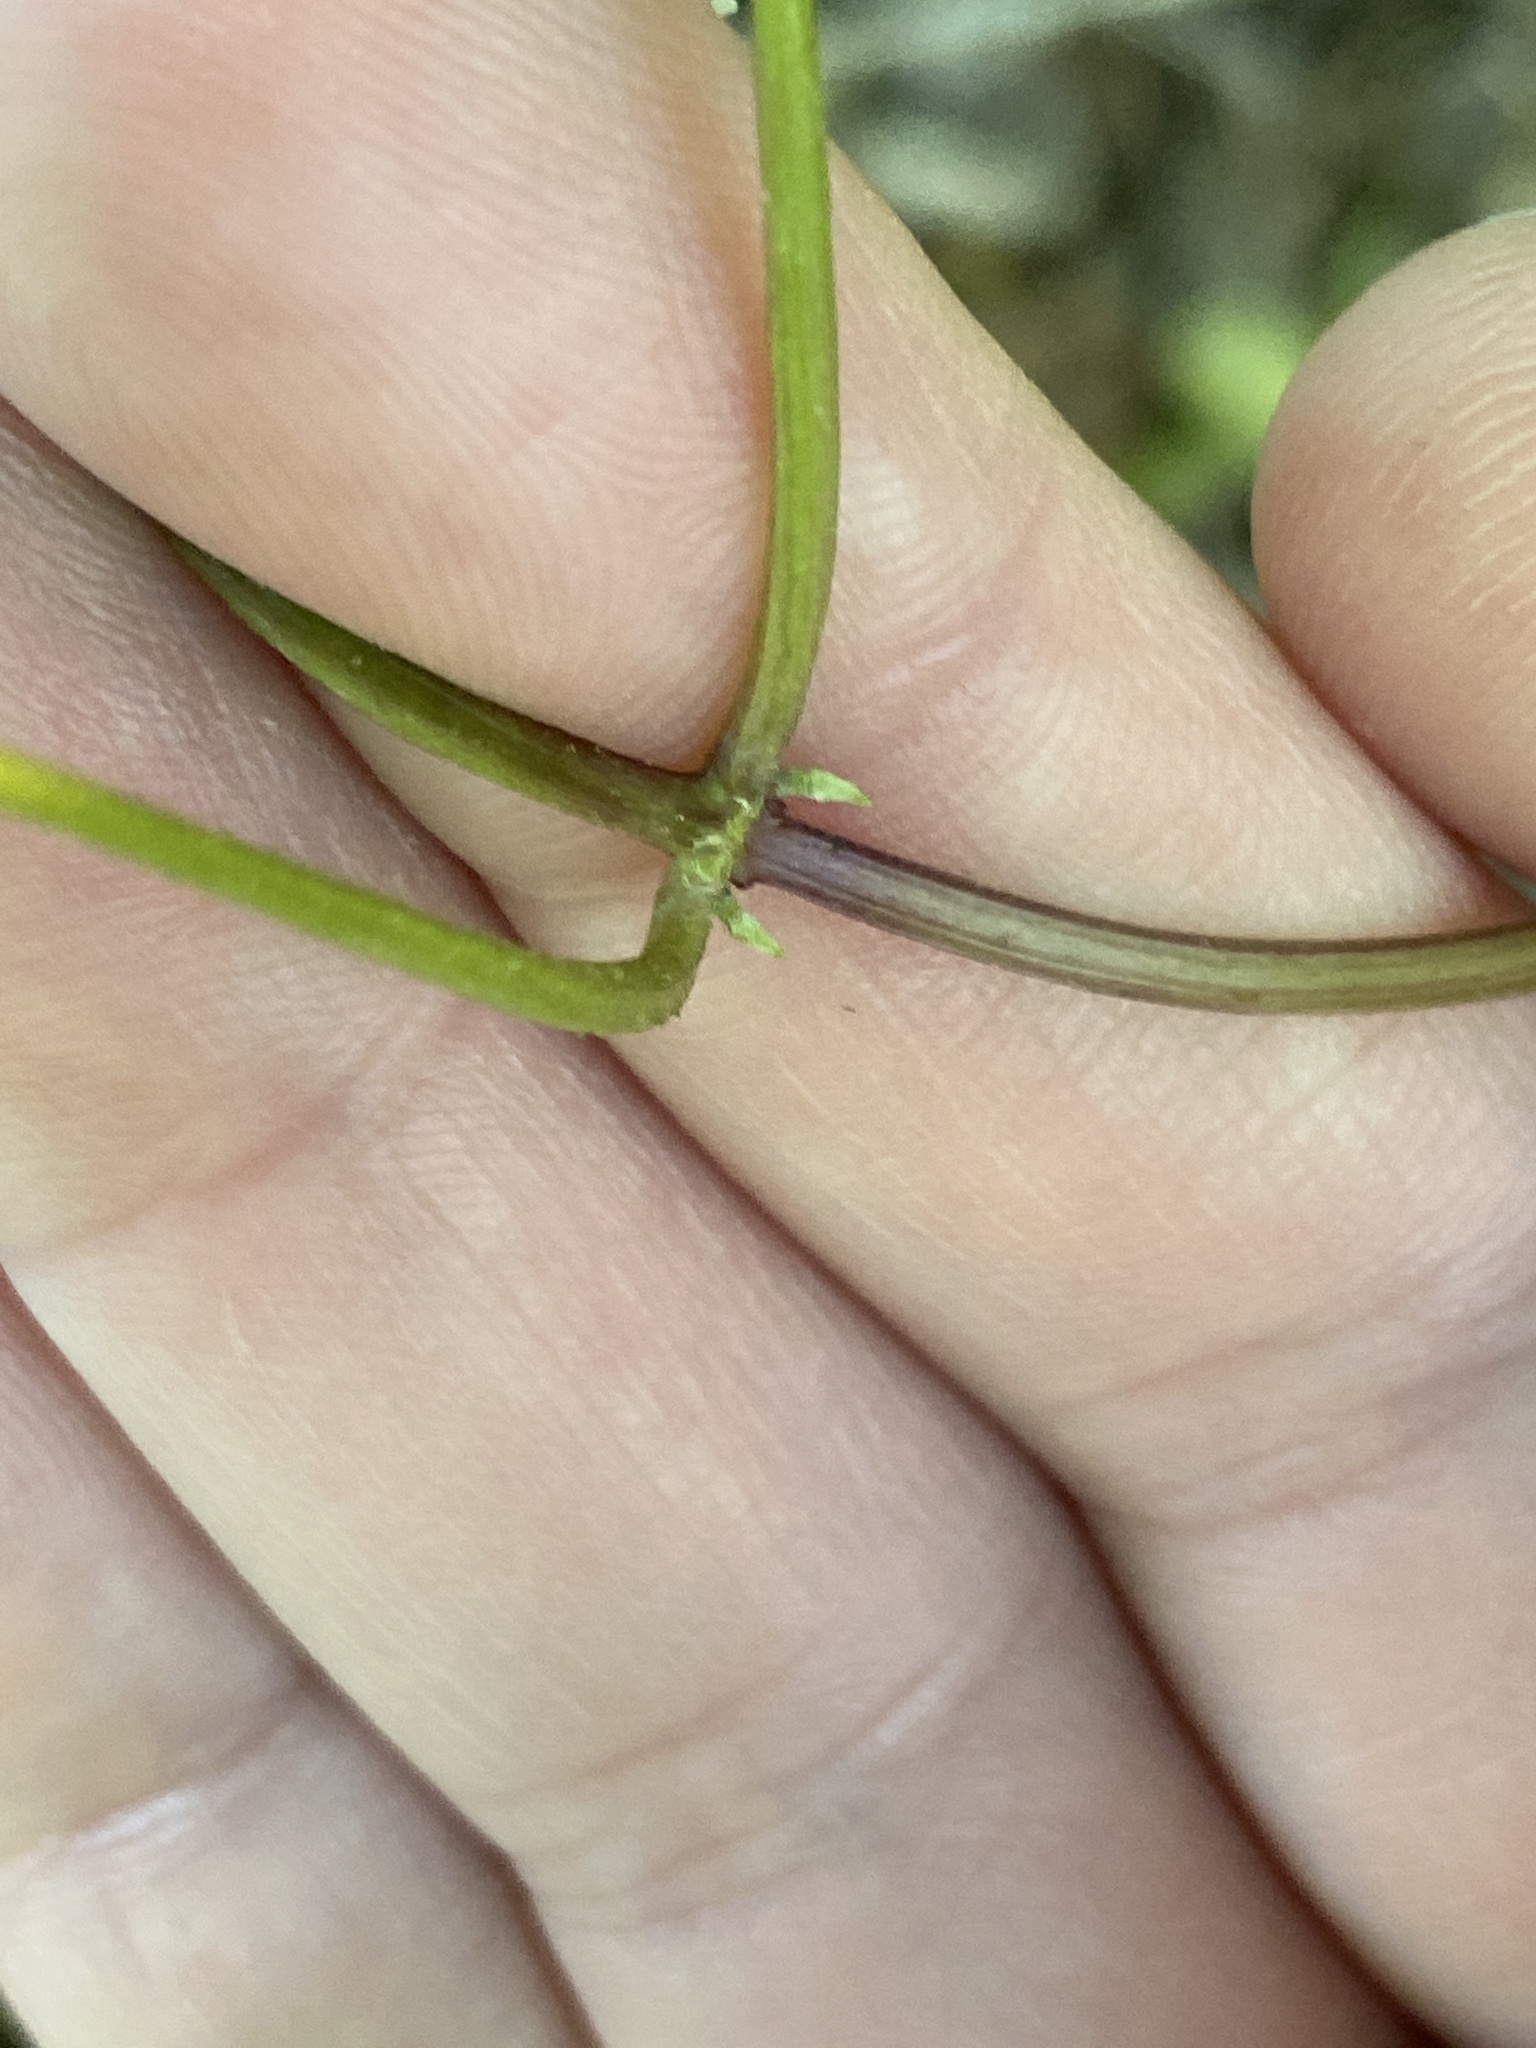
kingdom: Plantae
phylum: Tracheophyta
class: Magnoliopsida
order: Asterales
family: Asteraceae
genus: Mikania
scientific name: Mikania scandens
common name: Climbing hempvine
